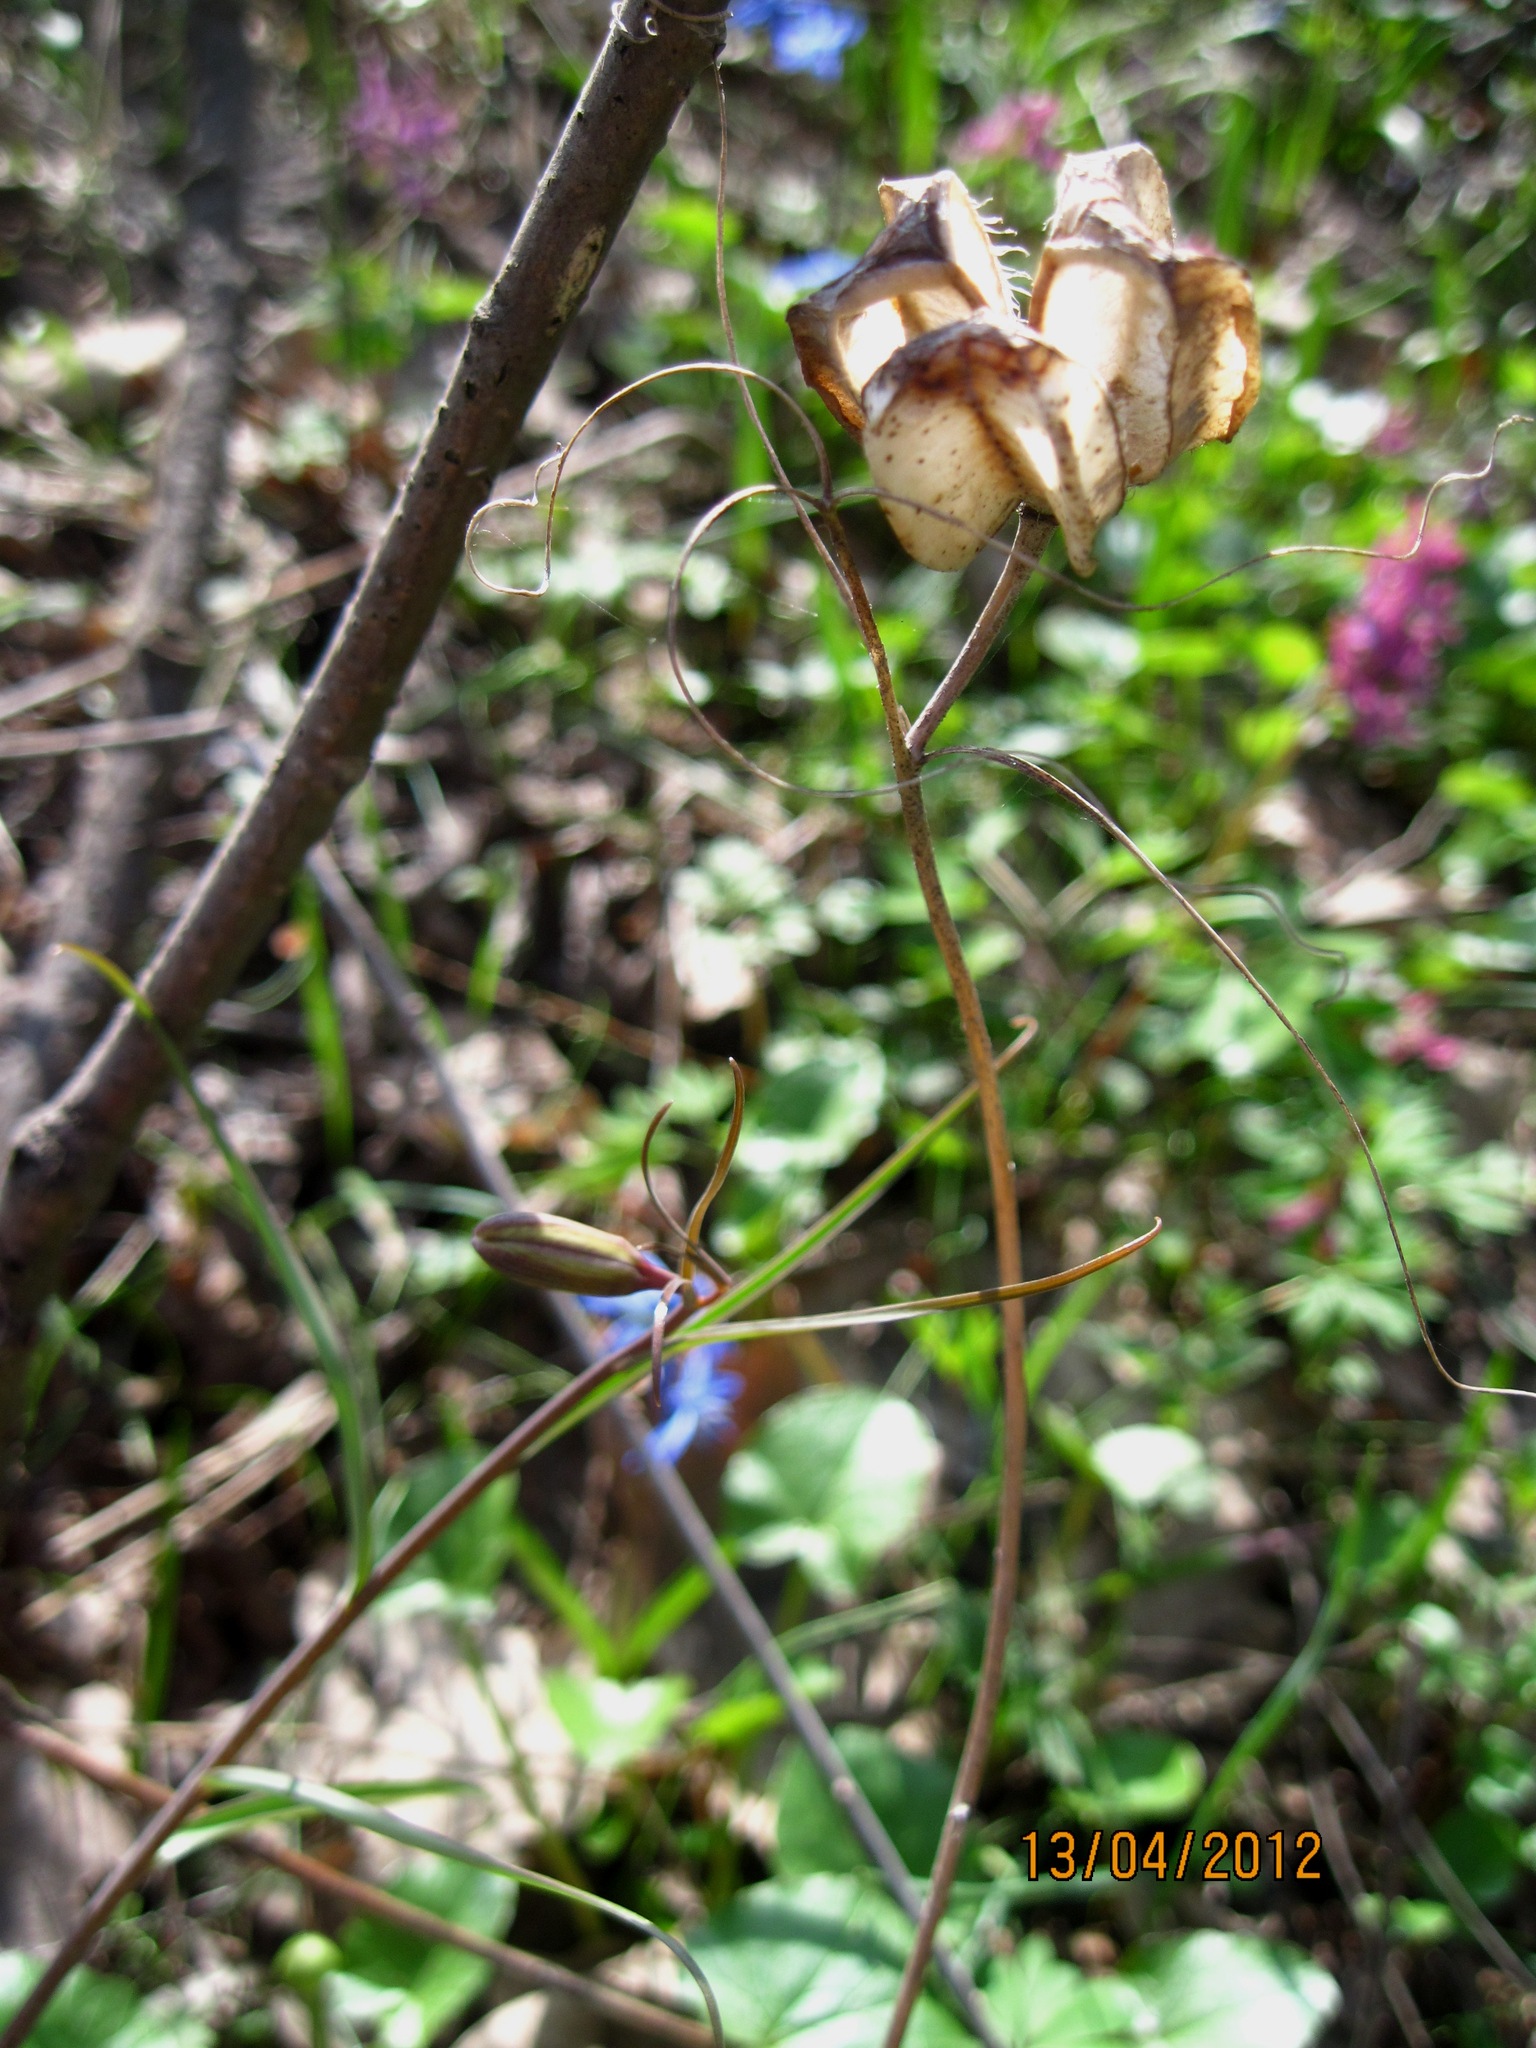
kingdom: Plantae
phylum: Tracheophyta
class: Liliopsida
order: Liliales
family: Liliaceae
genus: Fritillaria
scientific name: Fritillaria ruthenica
